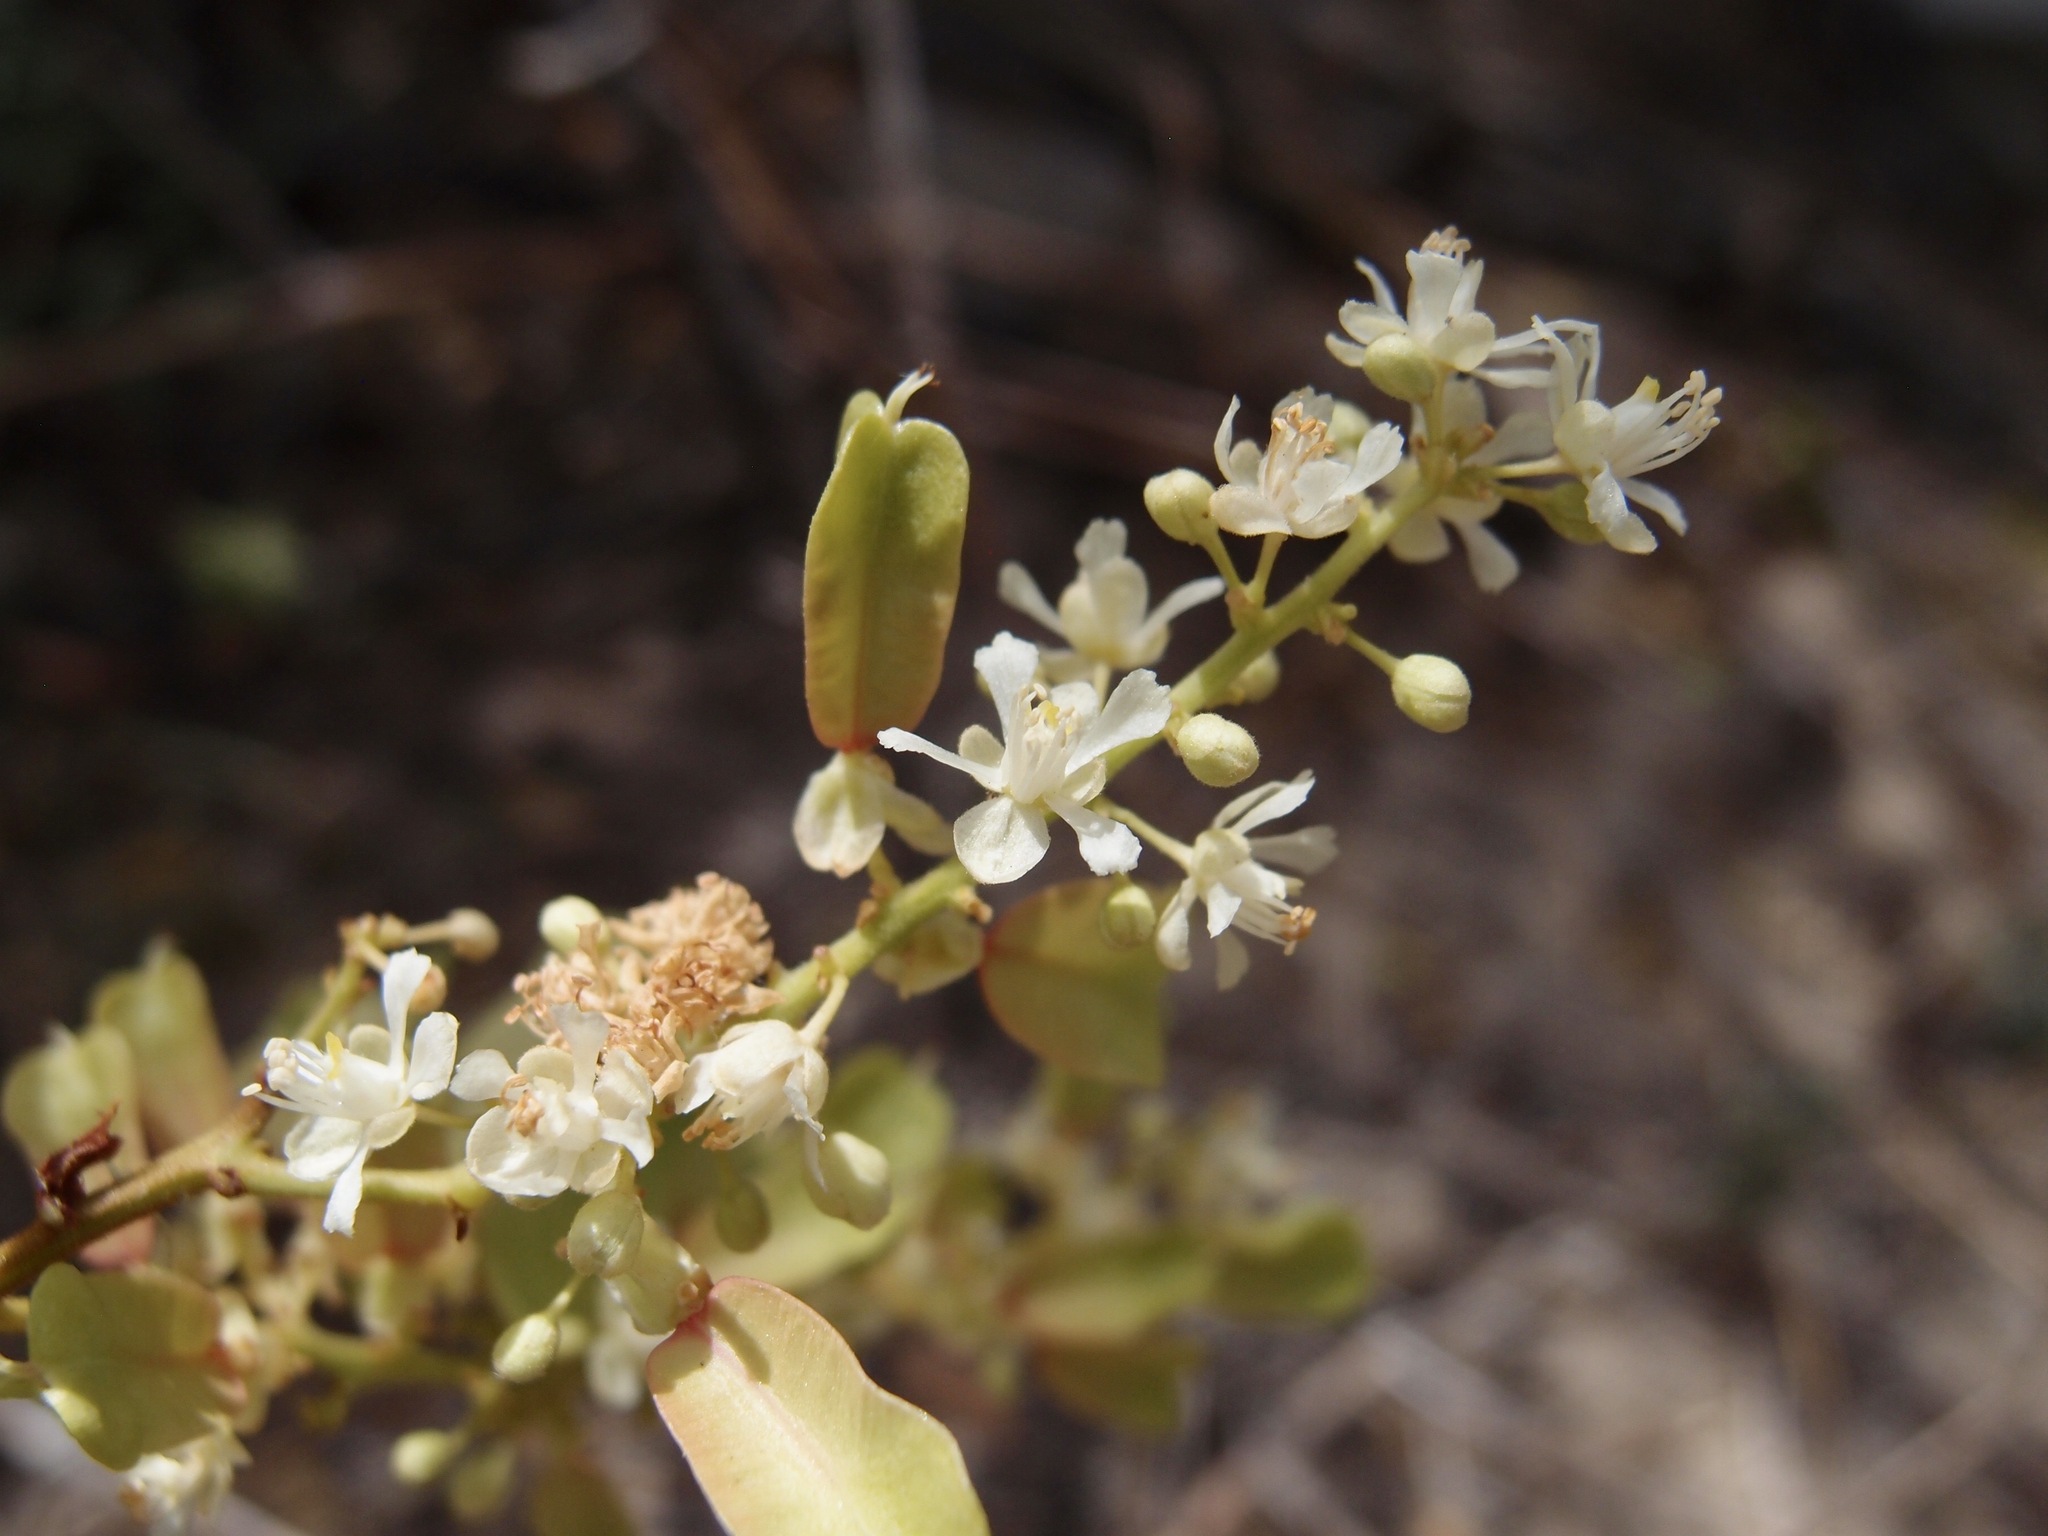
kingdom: Plantae
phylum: Tracheophyta
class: Magnoliopsida
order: Sapindales
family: Sapindaceae
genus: Serjania
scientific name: Serjania mexicana
